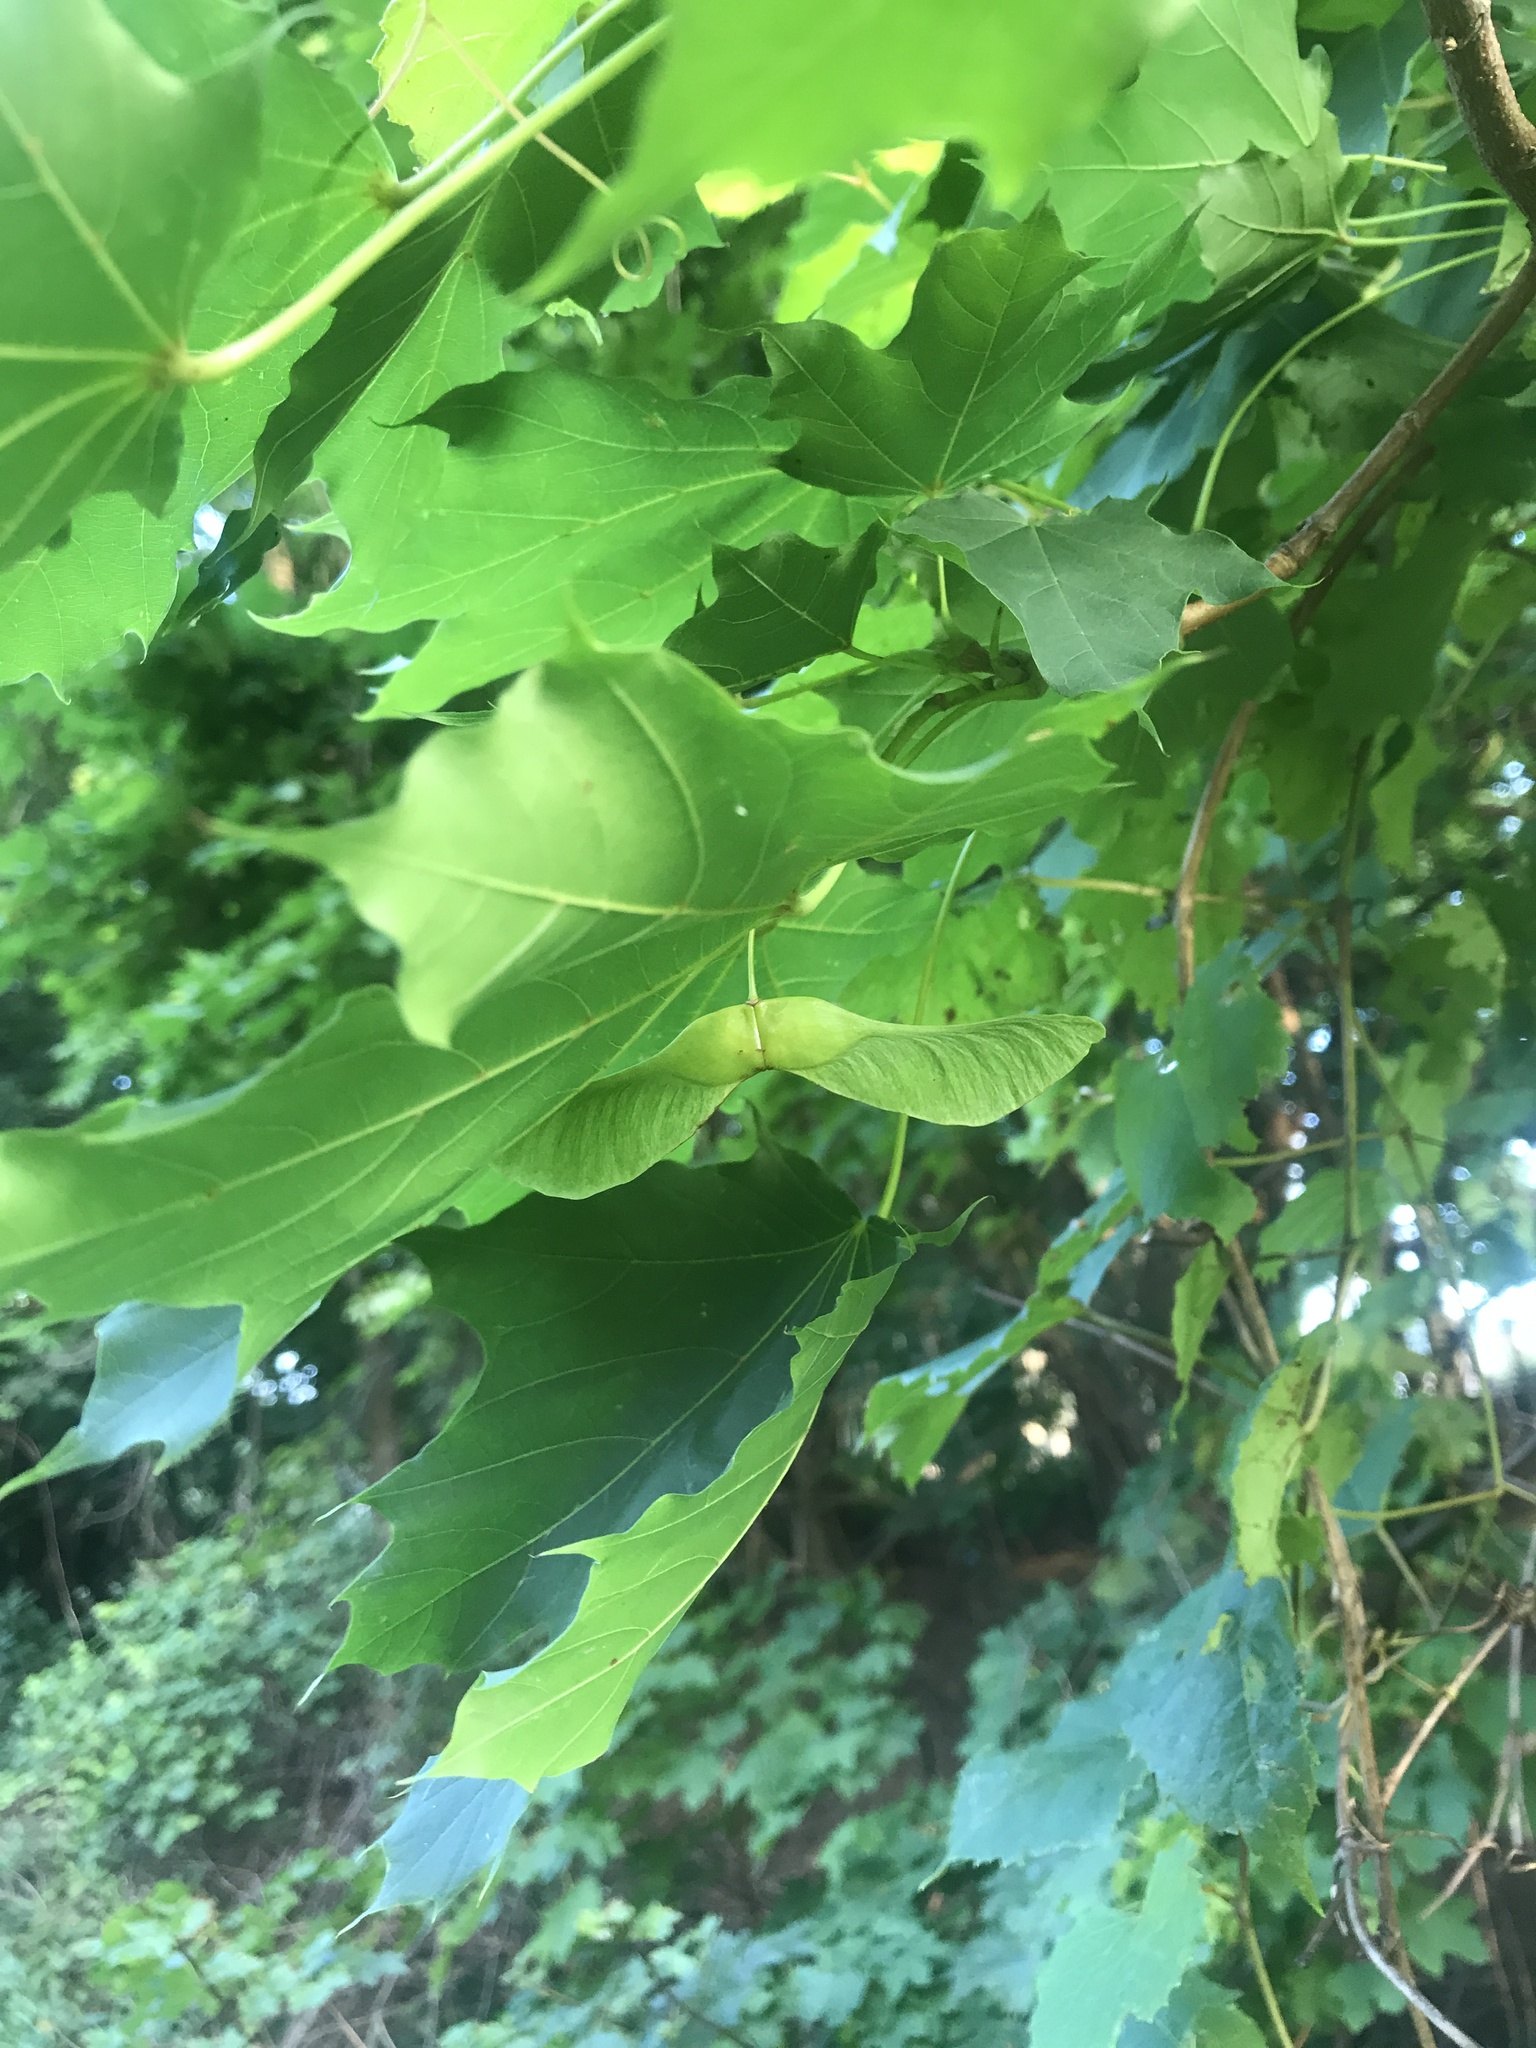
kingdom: Plantae
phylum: Tracheophyta
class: Magnoliopsida
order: Sapindales
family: Sapindaceae
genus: Acer
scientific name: Acer platanoides
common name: Norway maple
